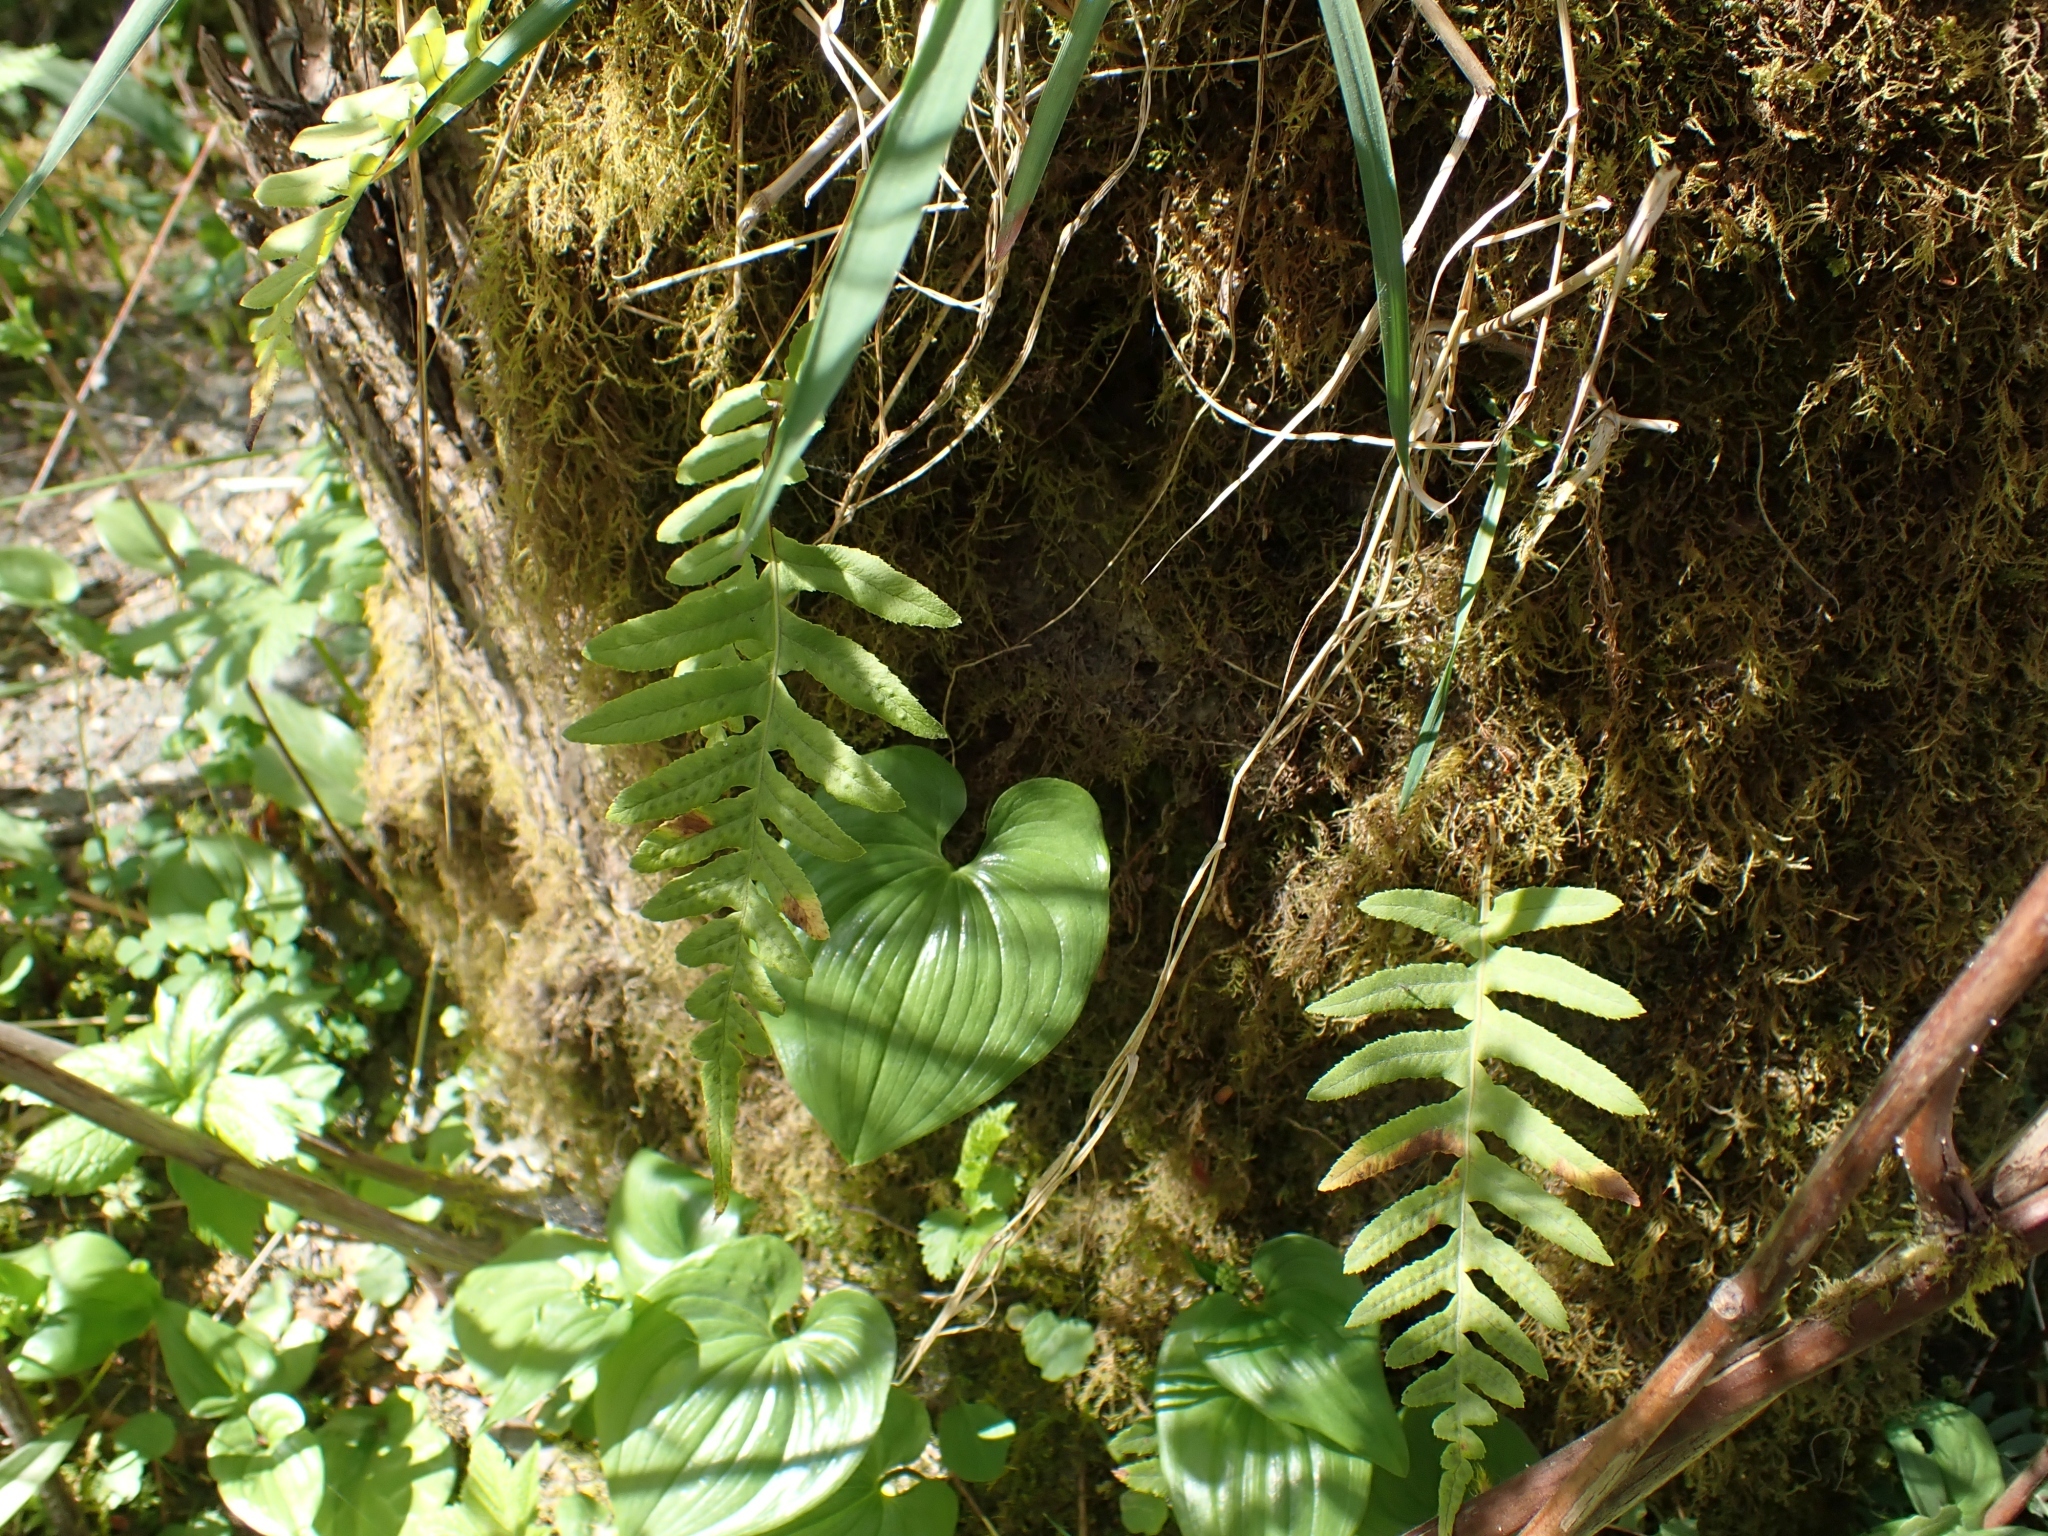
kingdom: Plantae
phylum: Tracheophyta
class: Polypodiopsida
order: Polypodiales
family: Polypodiaceae
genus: Polypodium
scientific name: Polypodium glycyrrhiza
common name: Licorice fern
